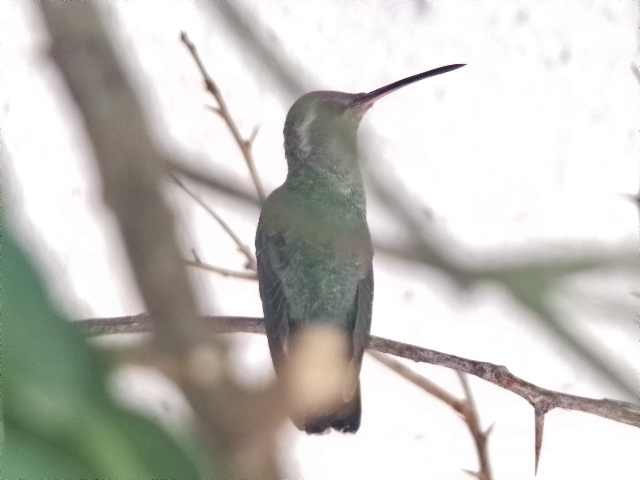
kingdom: Animalia
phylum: Chordata
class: Aves
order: Apodiformes
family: Trochilidae
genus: Cynanthus
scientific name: Cynanthus latirostris
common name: Broad-billed hummingbird
